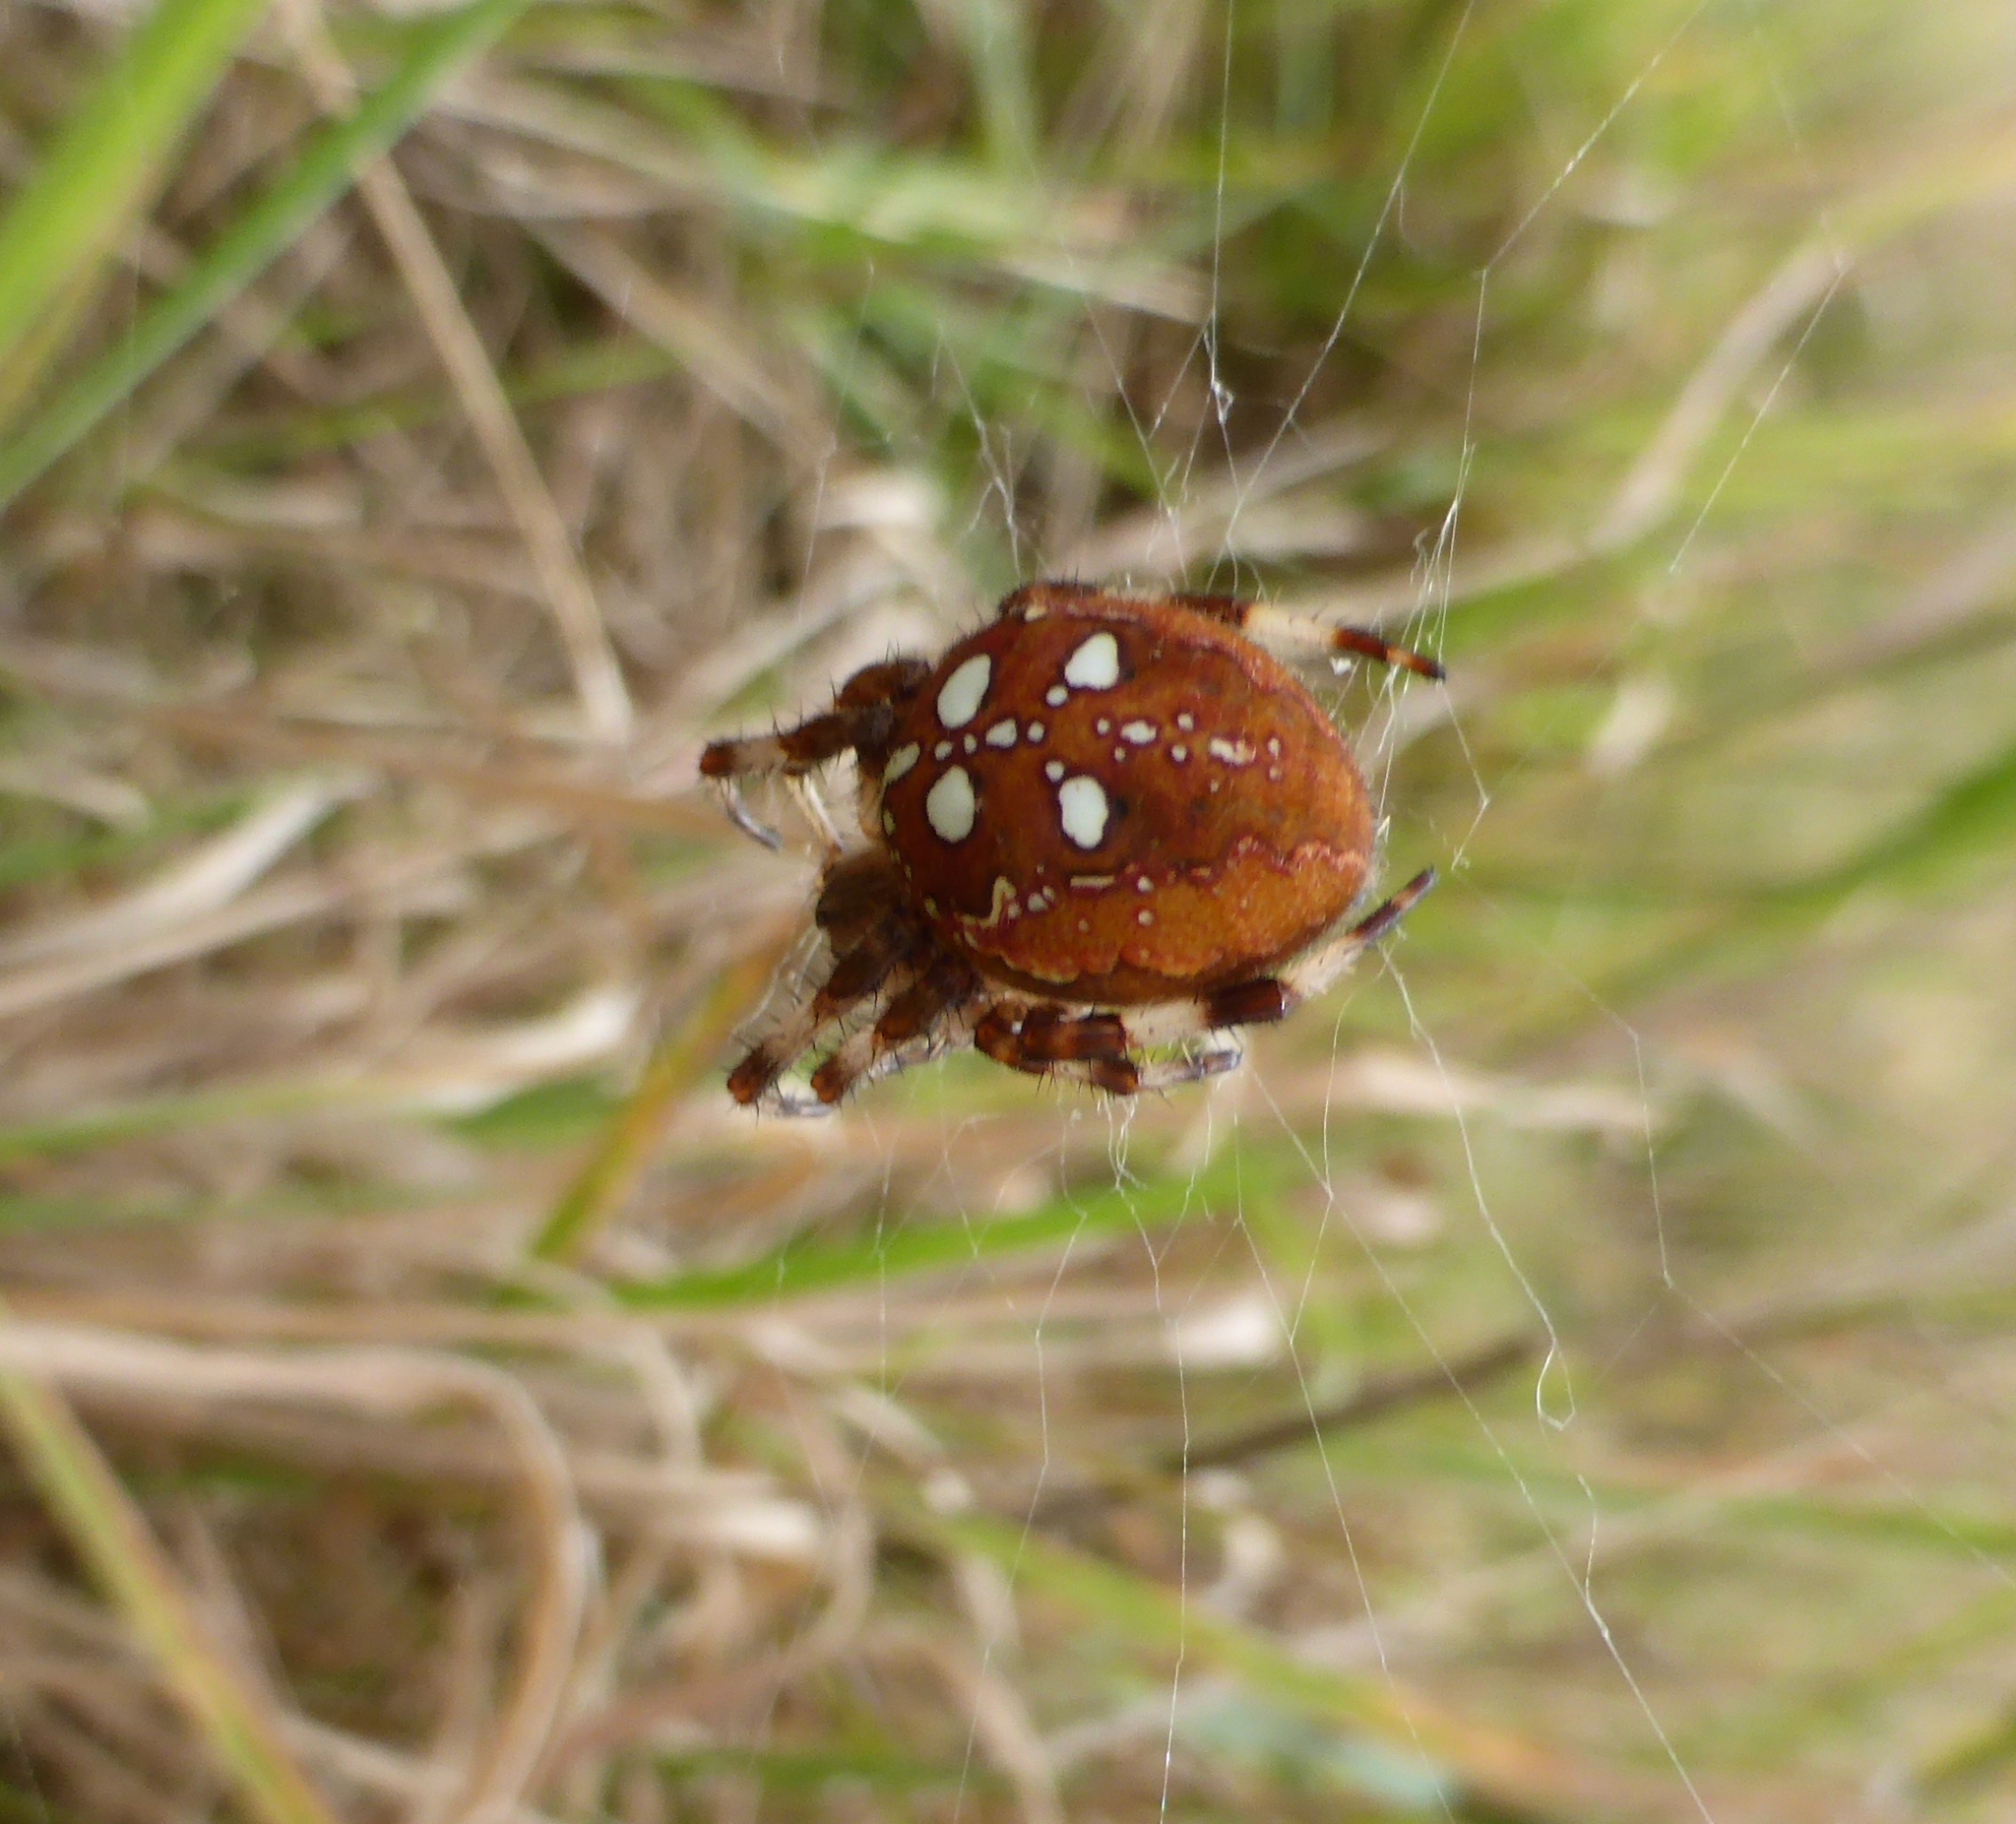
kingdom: Animalia
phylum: Arthropoda
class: Arachnida
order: Araneae
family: Araneidae
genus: Araneus
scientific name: Araneus quadratus
